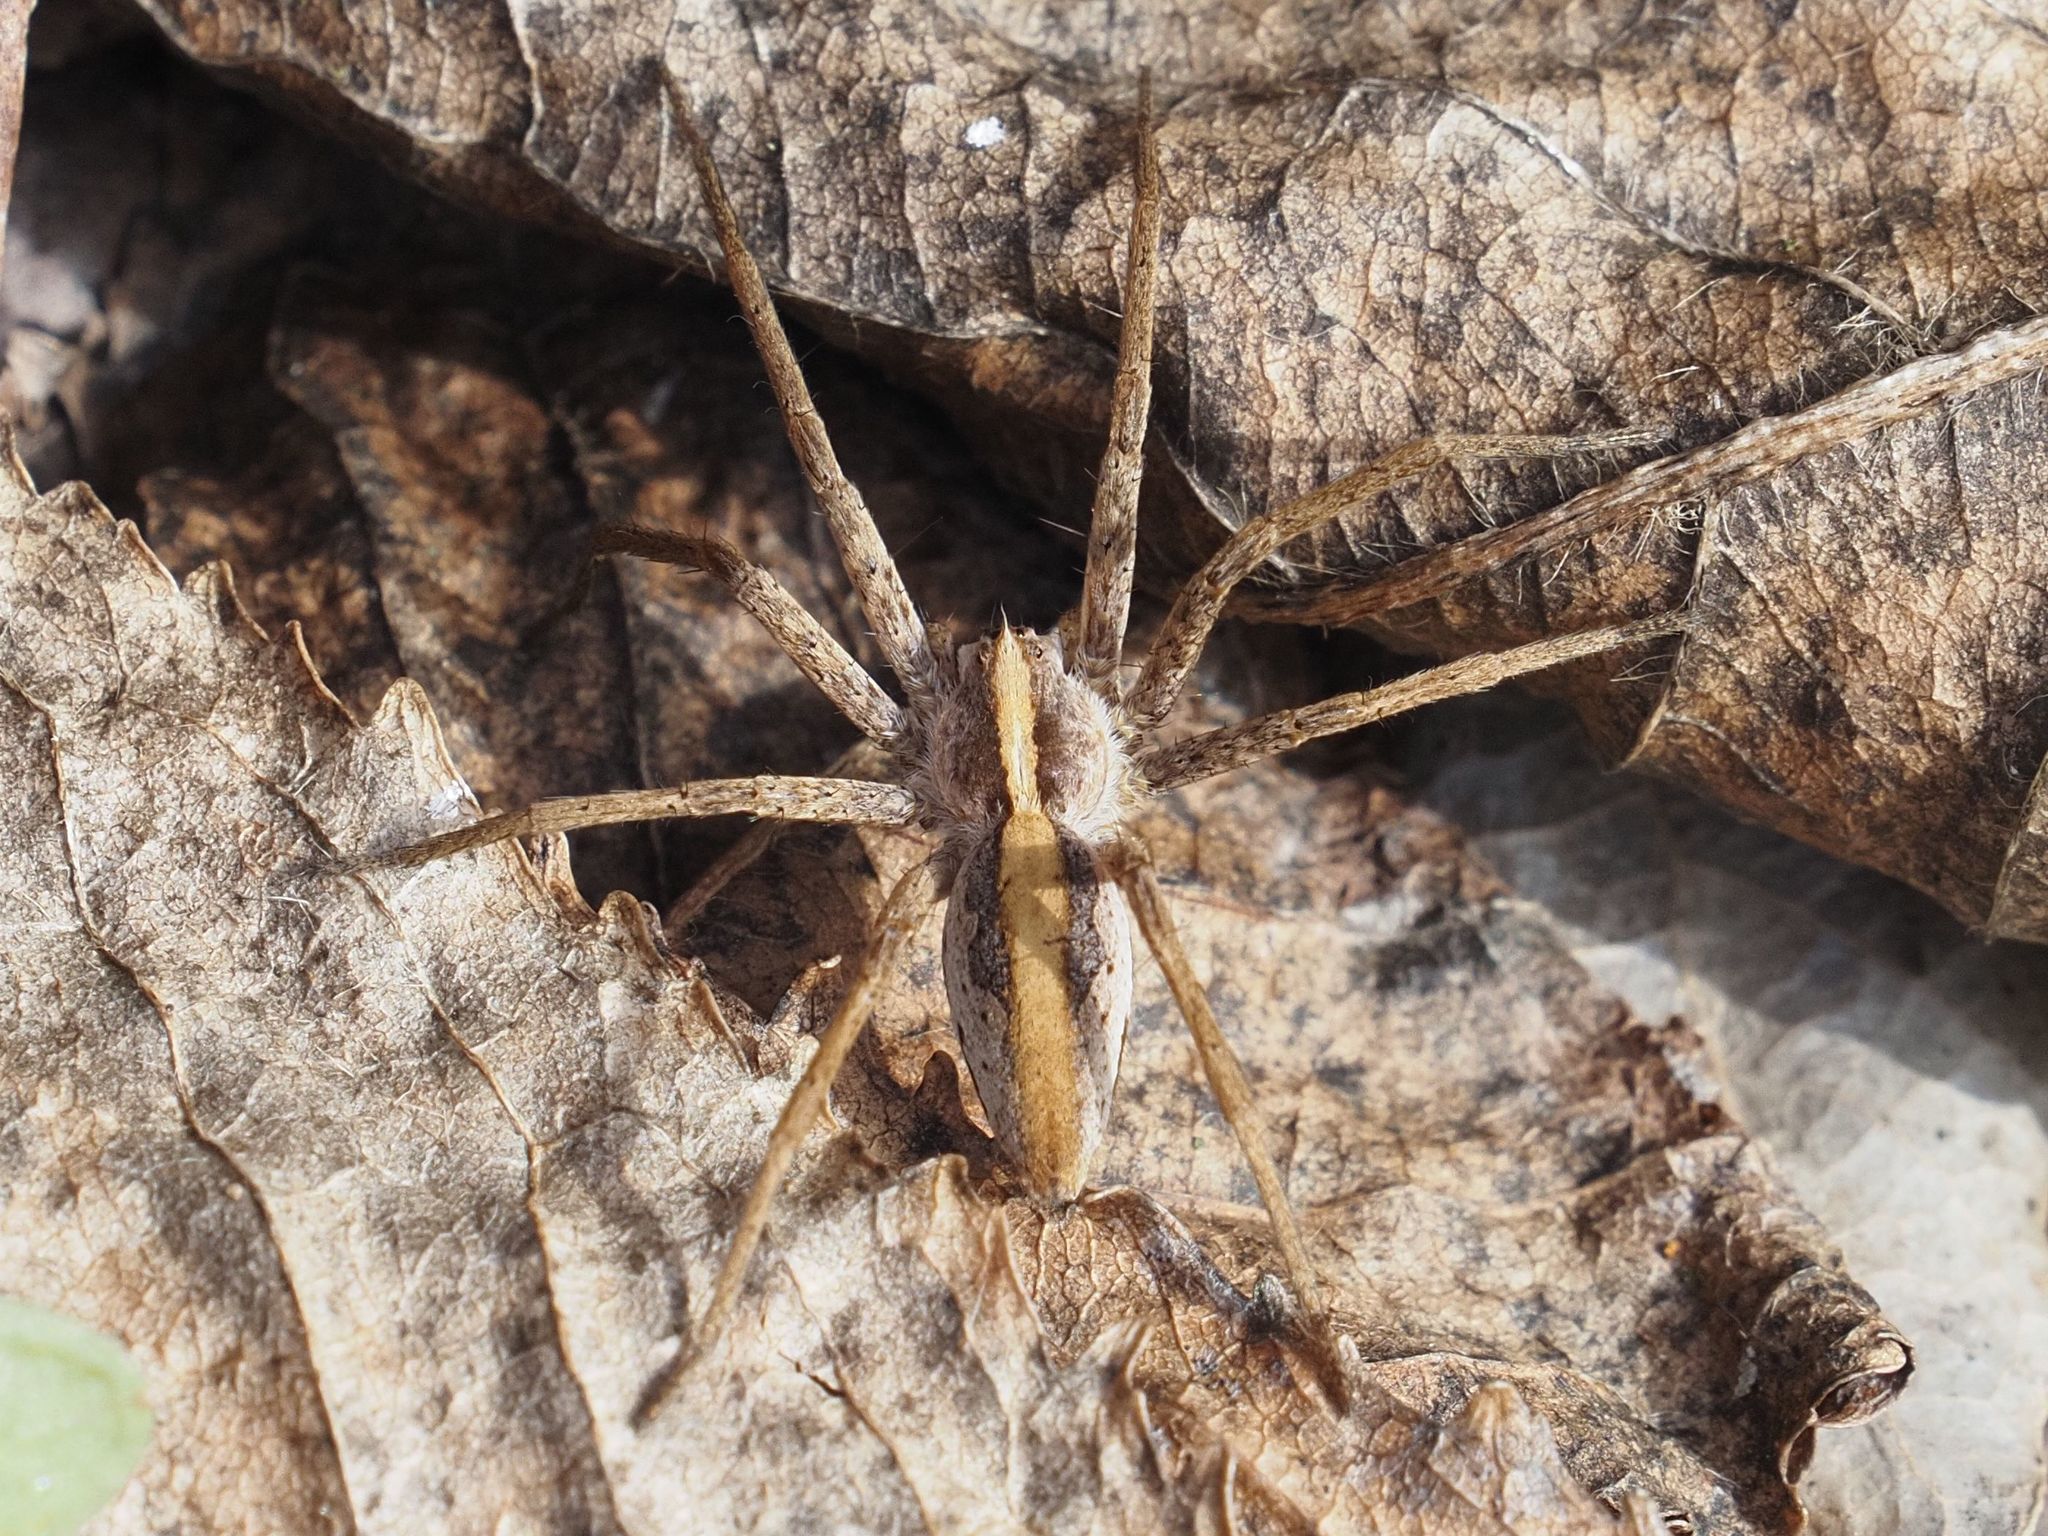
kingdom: Animalia
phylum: Arthropoda
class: Arachnida
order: Araneae
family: Pisauridae
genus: Pisaura
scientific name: Pisaura mirabilis
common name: Tent spider
